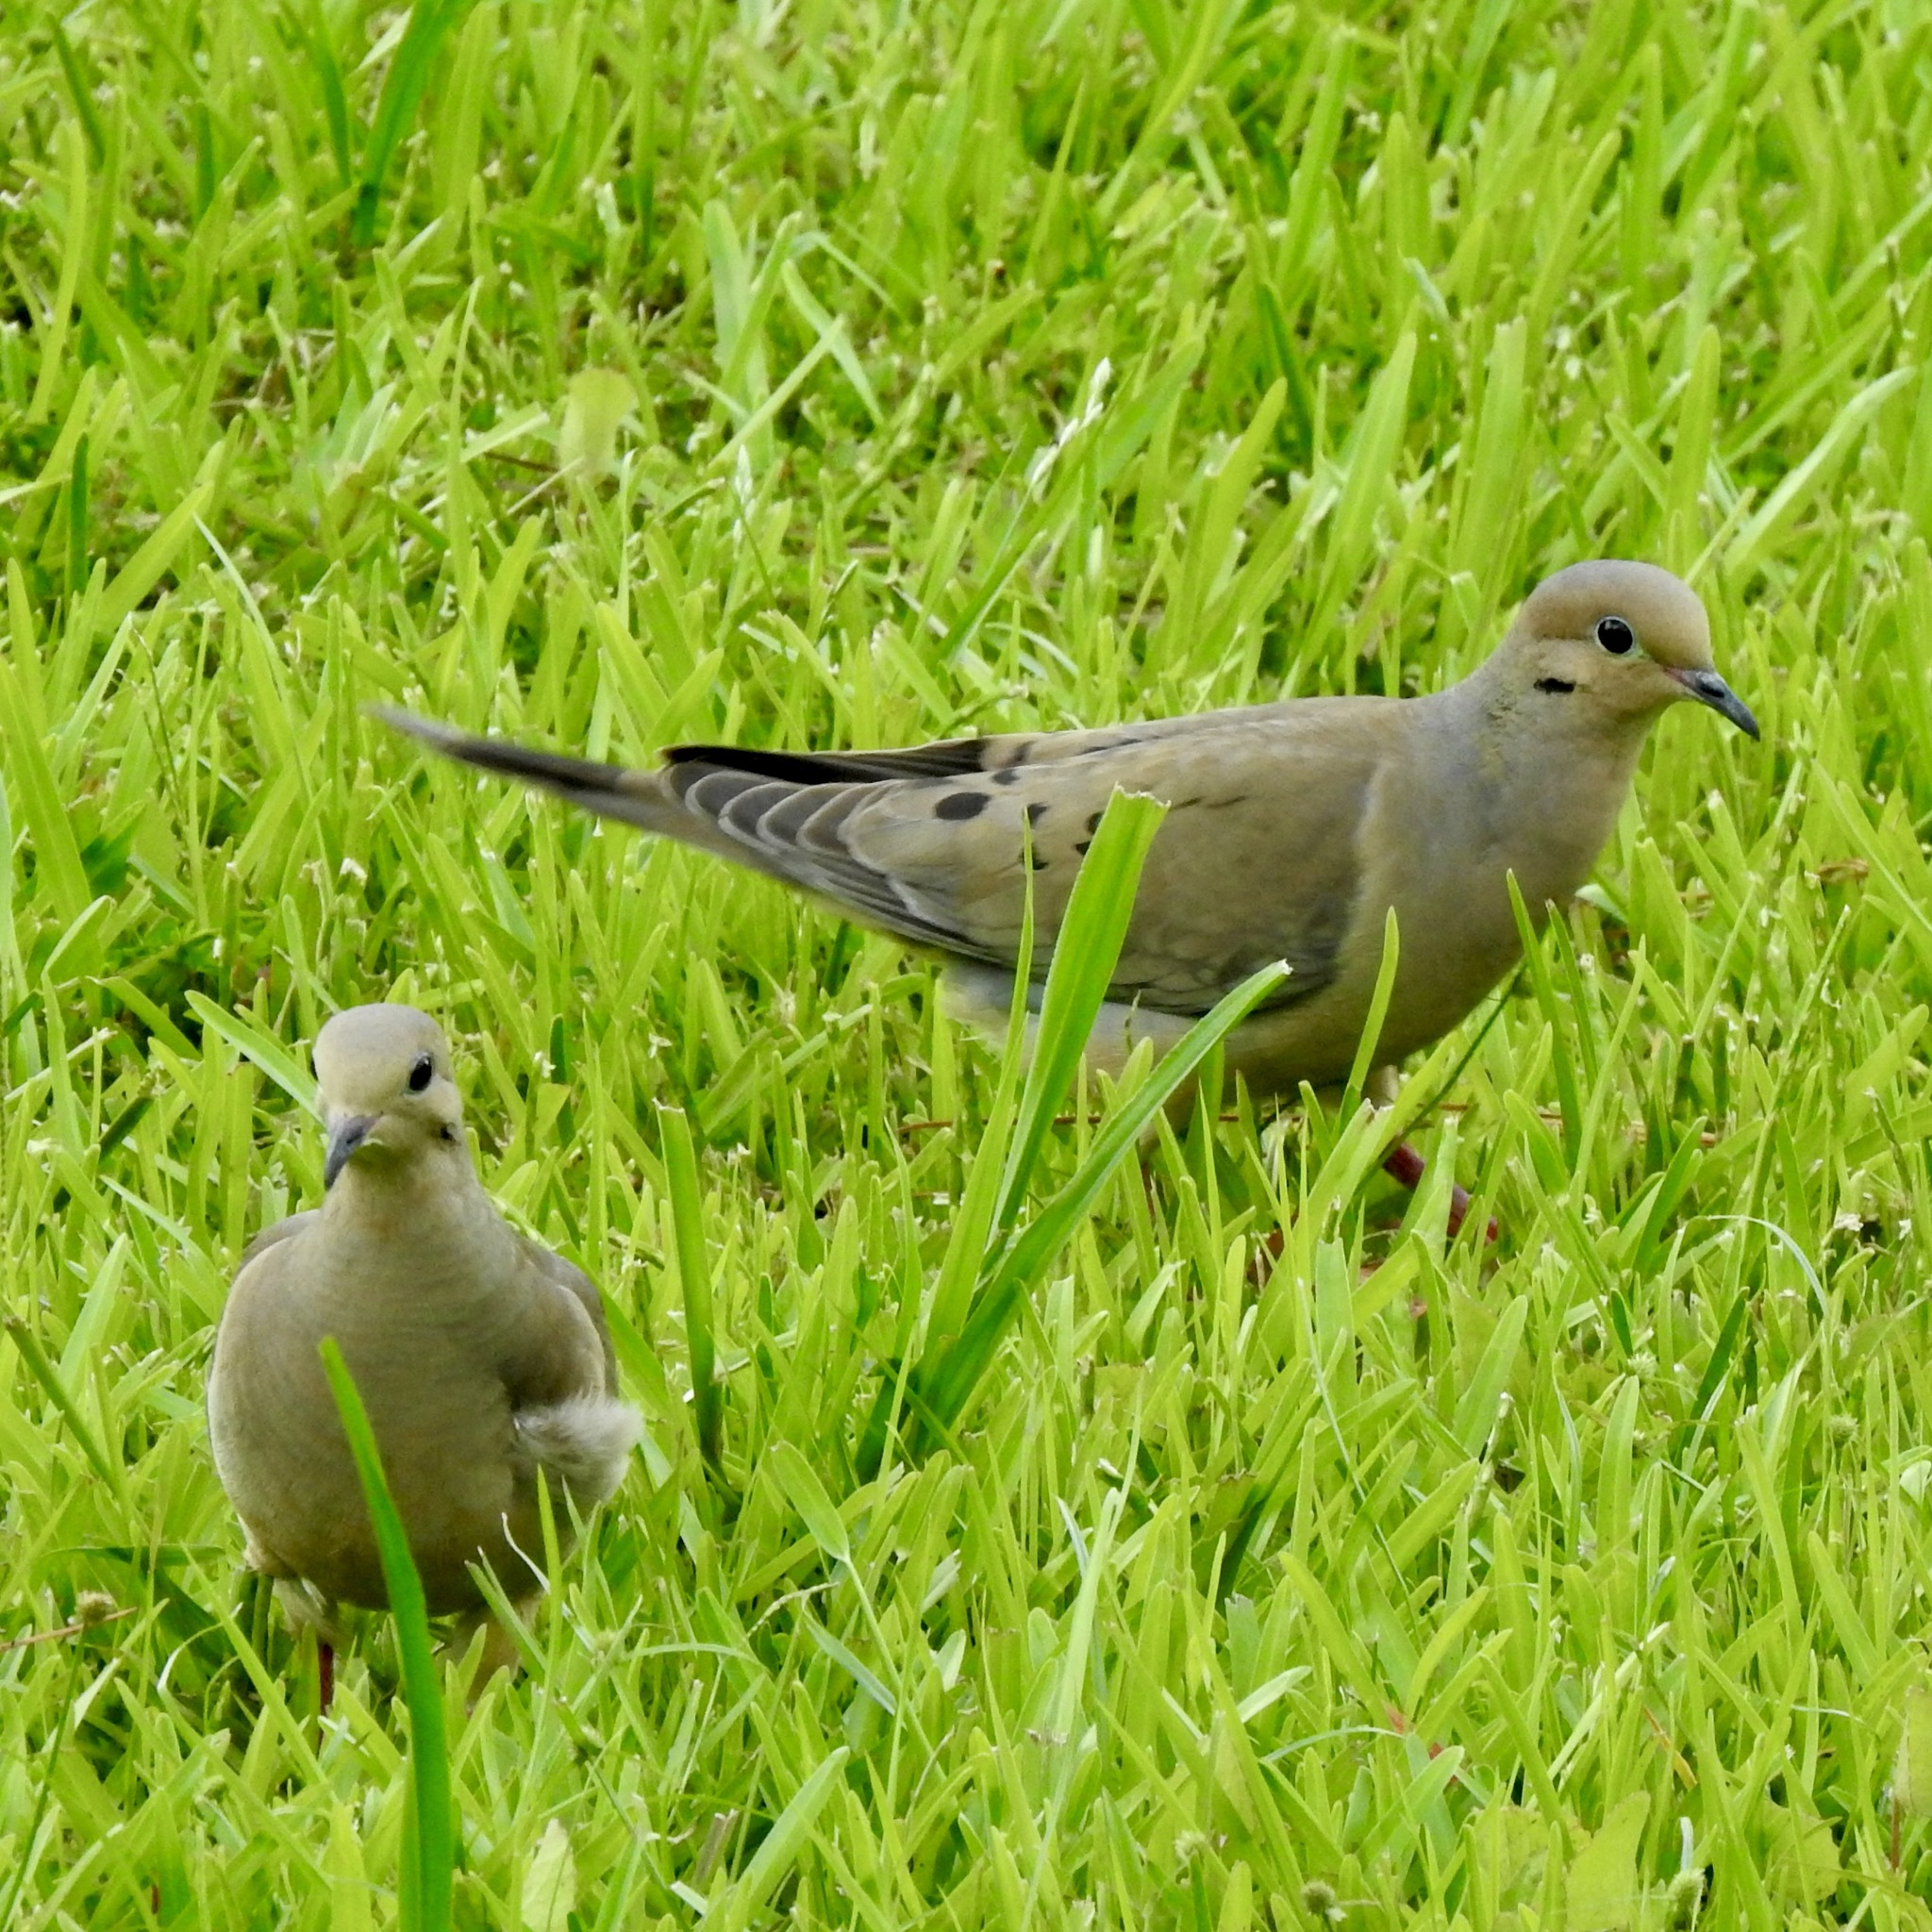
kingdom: Animalia
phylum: Chordata
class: Aves
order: Columbiformes
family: Columbidae
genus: Zenaida
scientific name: Zenaida macroura
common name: Mourning dove
